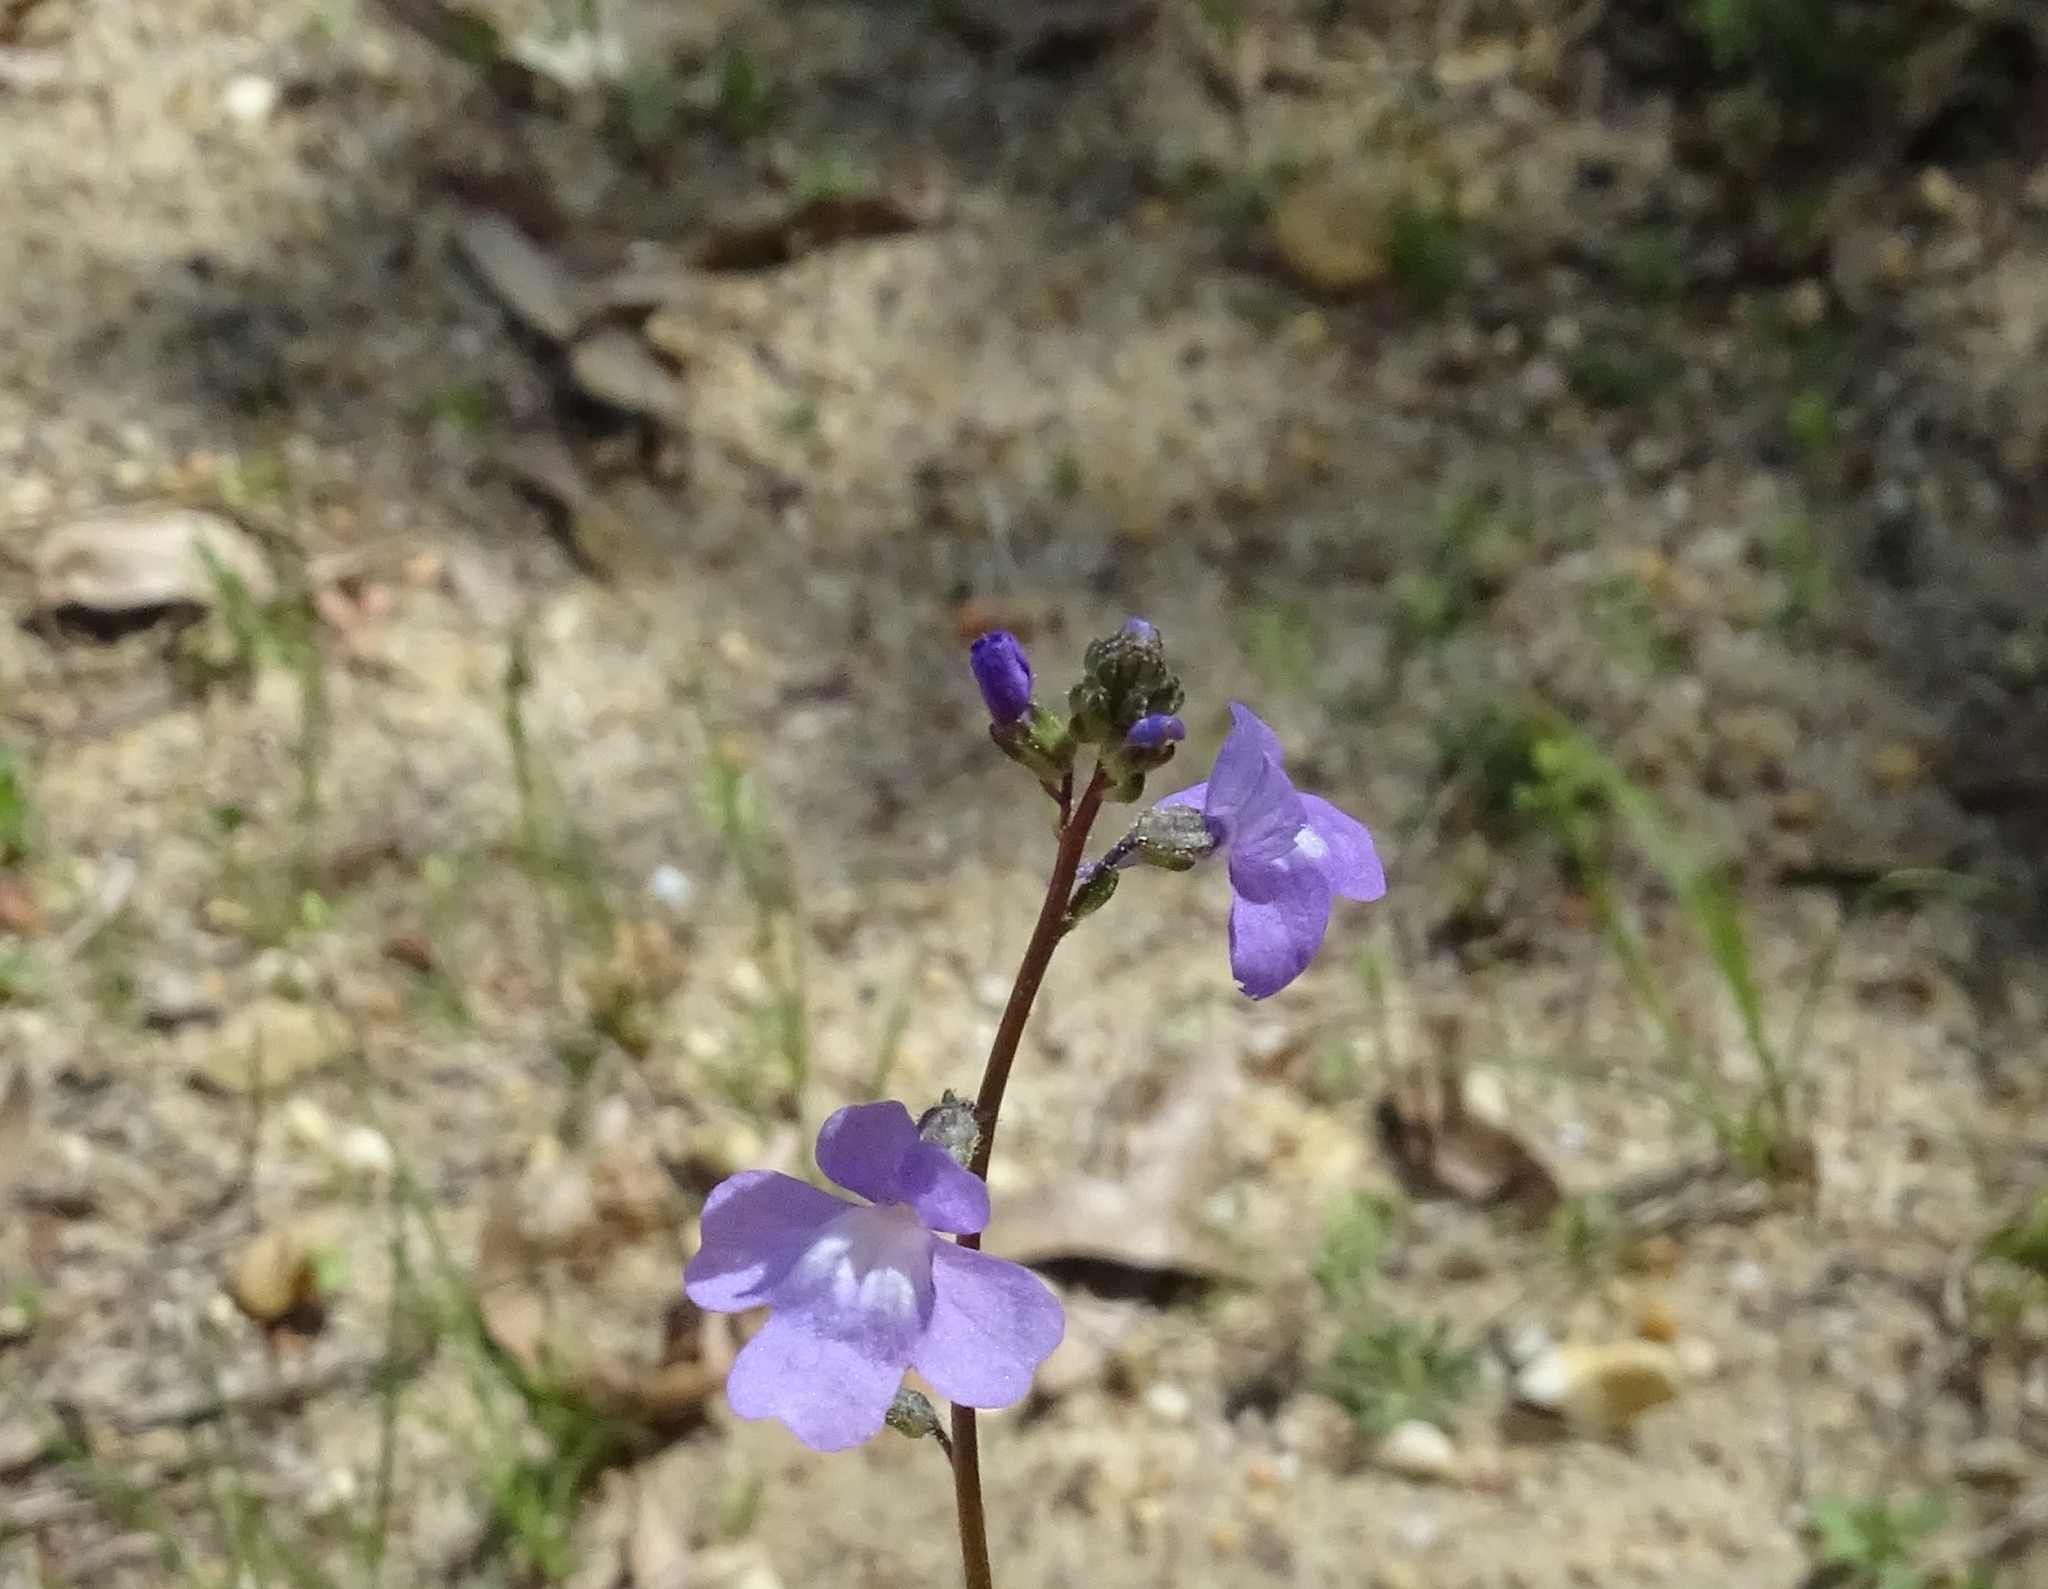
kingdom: Plantae
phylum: Tracheophyta
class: Magnoliopsida
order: Lamiales
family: Plantaginaceae
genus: Nuttallanthus
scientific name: Nuttallanthus canadensis
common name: Blue toadflax
